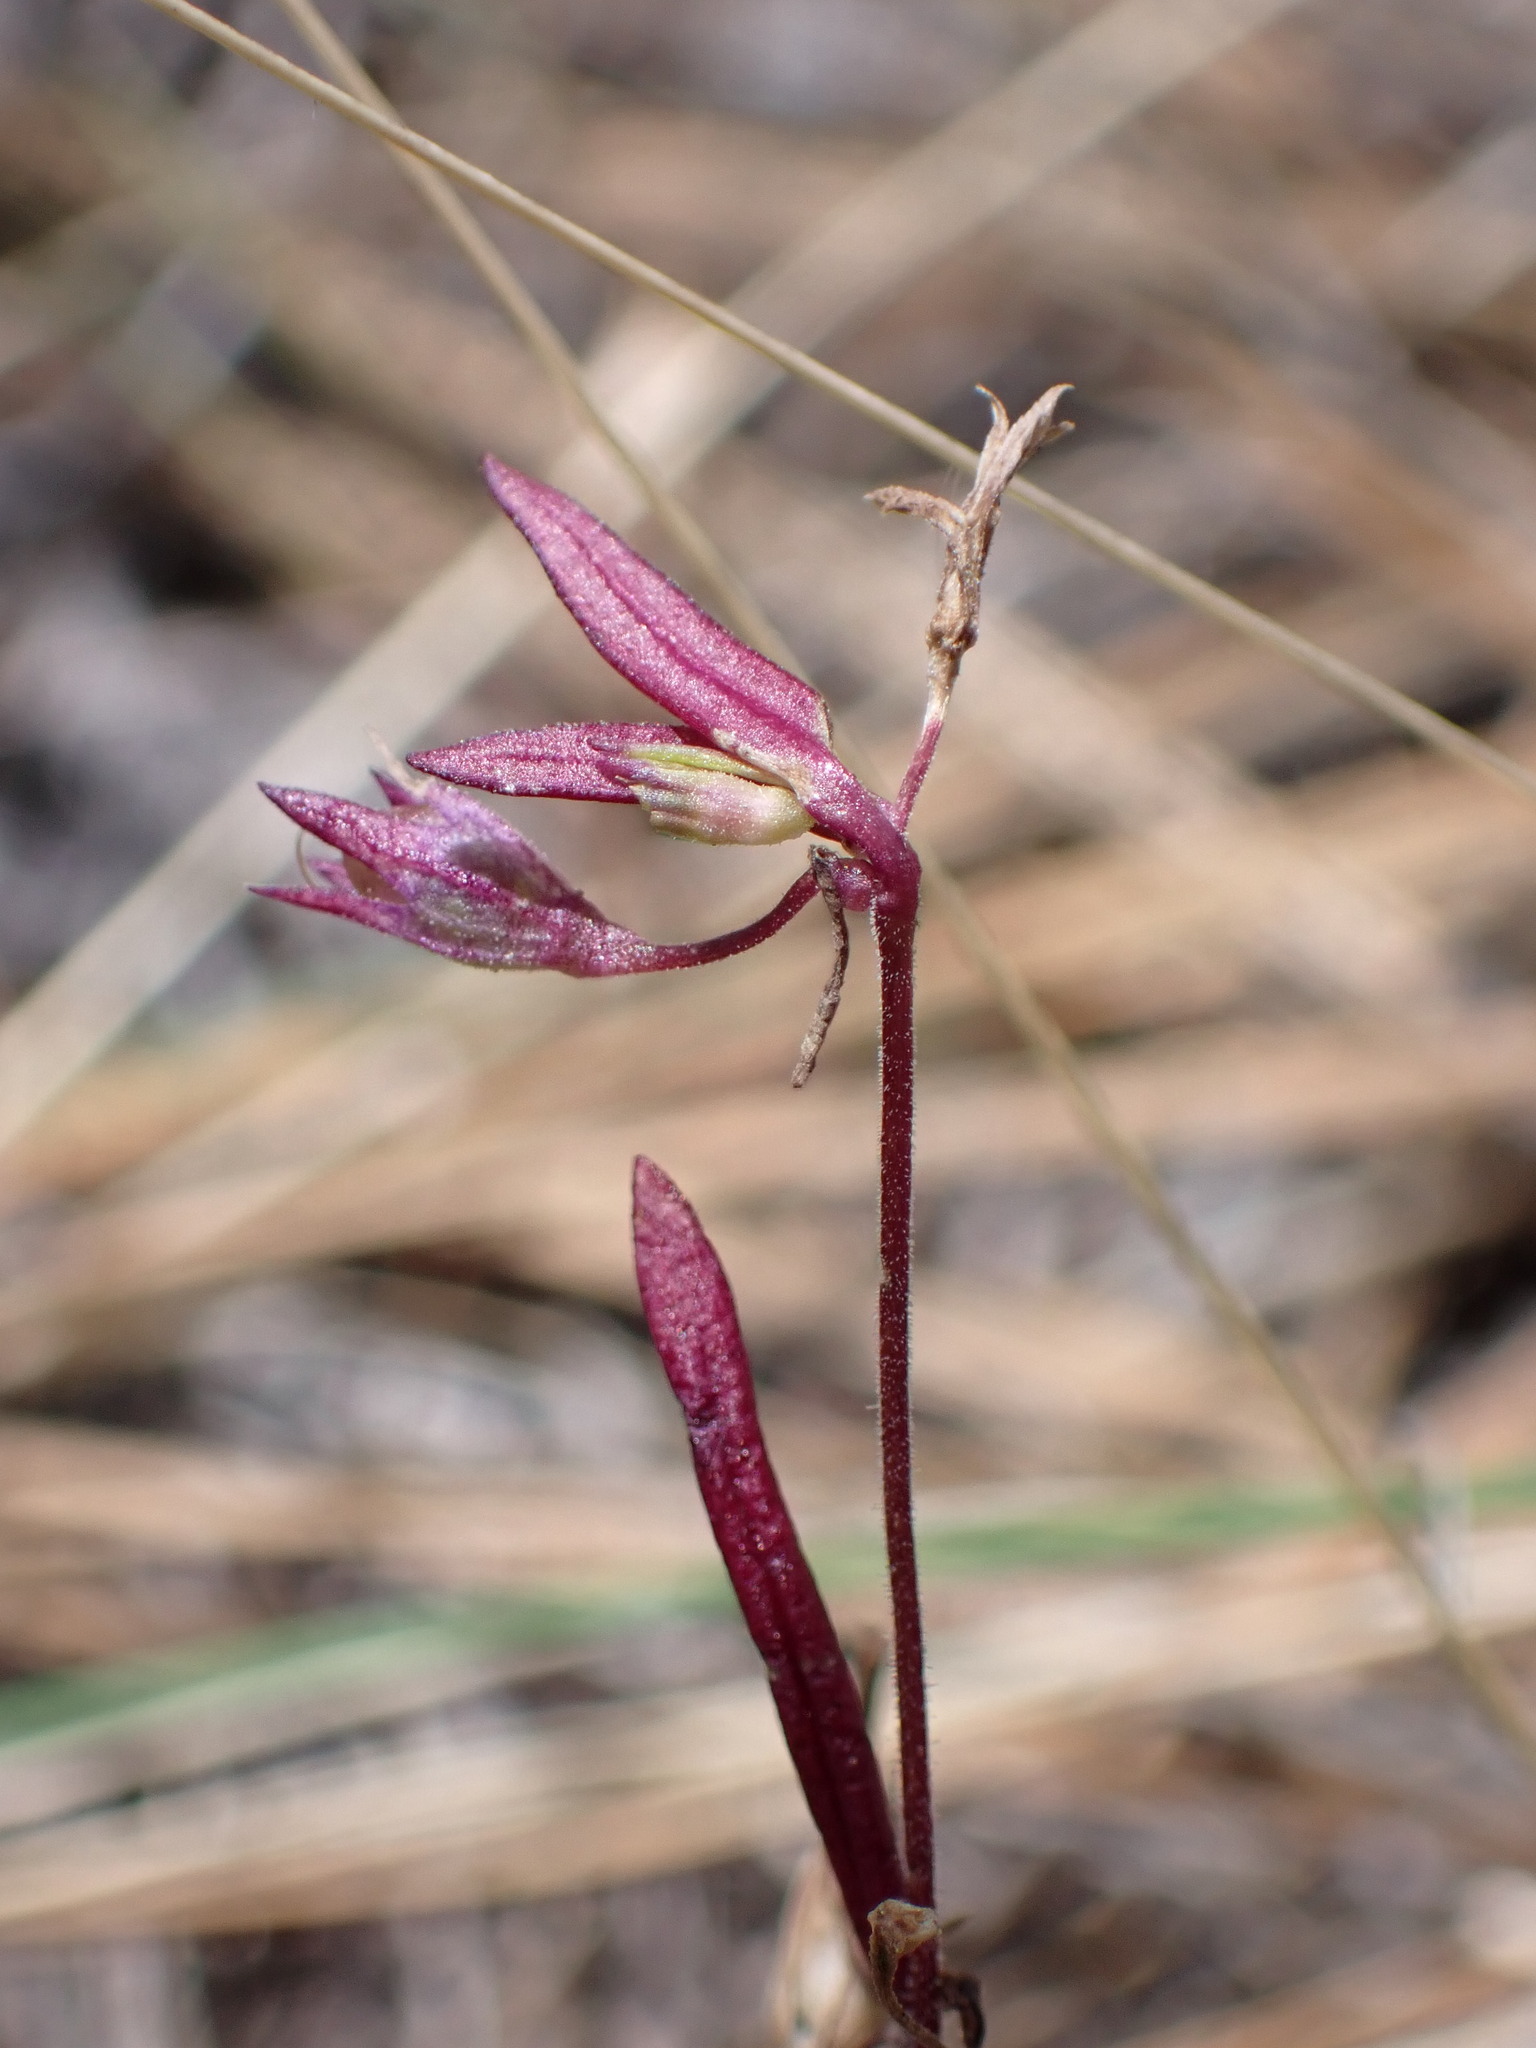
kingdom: Plantae
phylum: Tracheophyta
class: Magnoliopsida
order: Lamiales
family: Plantaginaceae
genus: Collinsia
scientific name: Collinsia parviflora
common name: Blue-lips
